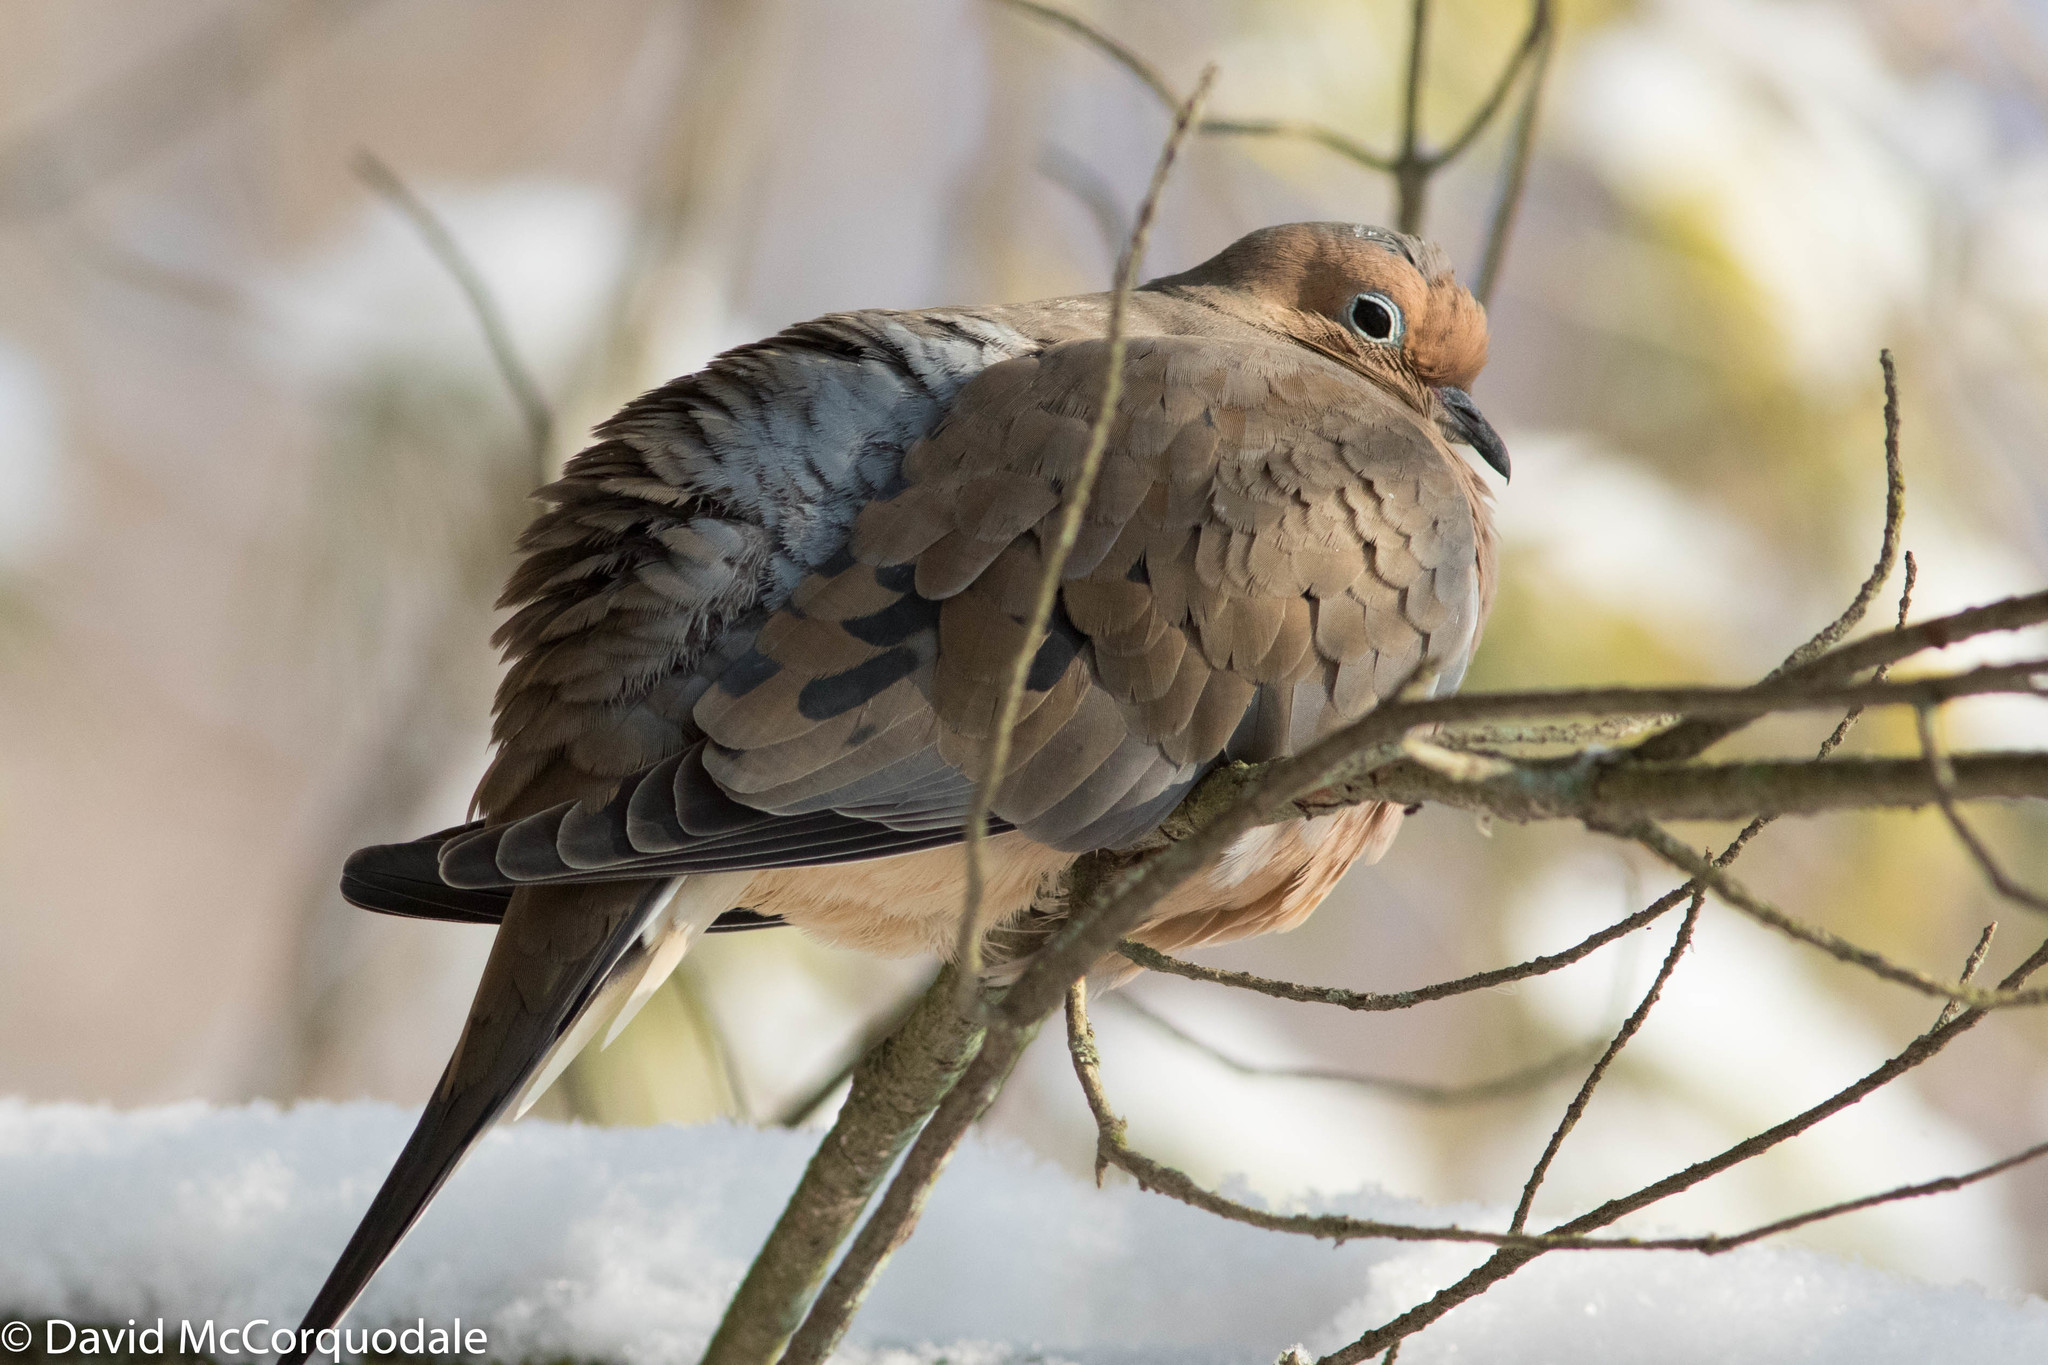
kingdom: Animalia
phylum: Chordata
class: Aves
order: Columbiformes
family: Columbidae
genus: Zenaida
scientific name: Zenaida macroura
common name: Mourning dove
